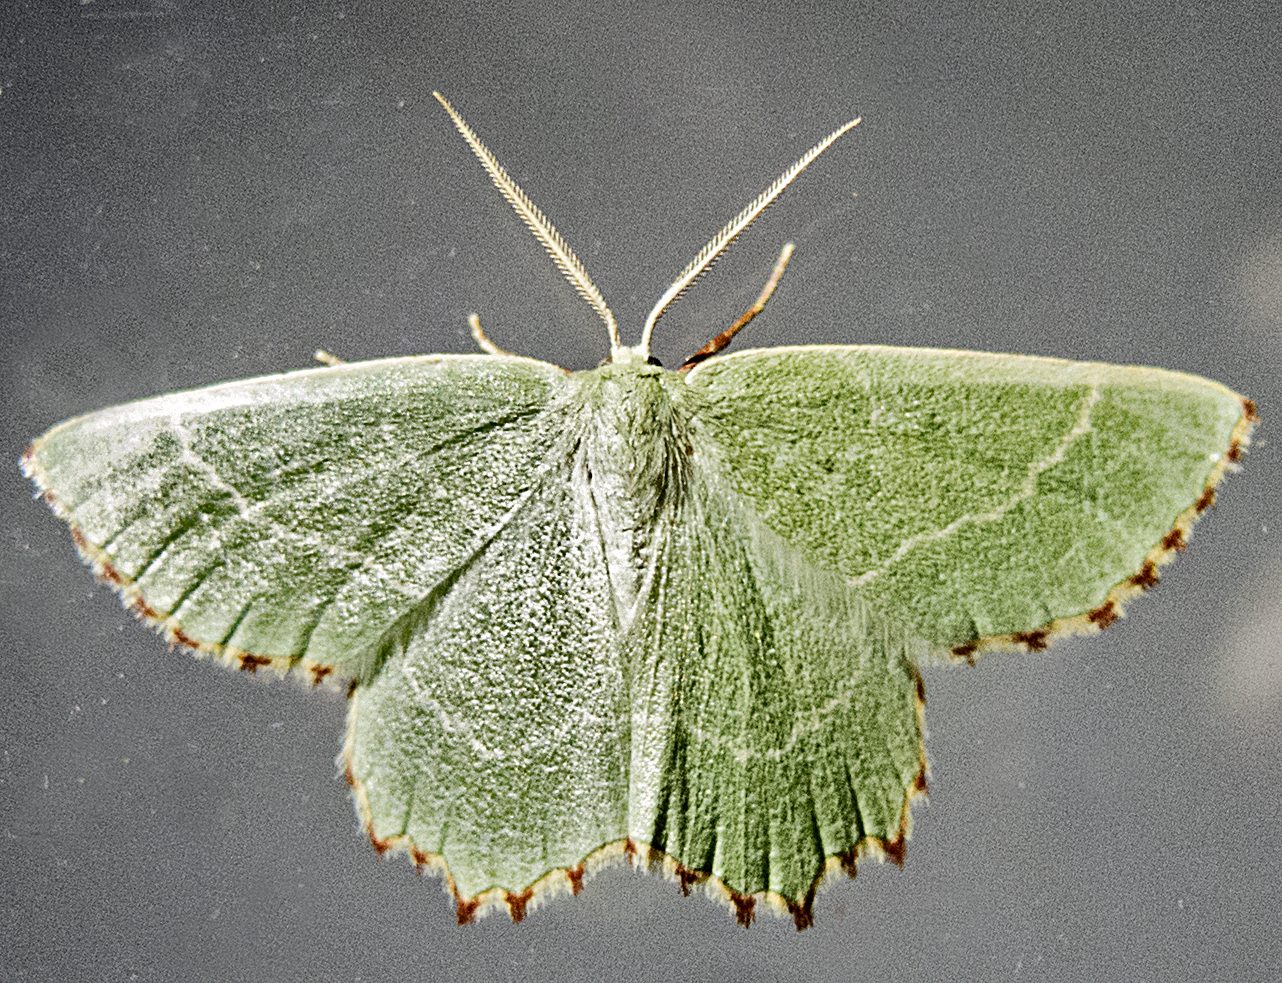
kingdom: Animalia
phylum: Arthropoda
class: Insecta
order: Lepidoptera
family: Geometridae
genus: Thalera
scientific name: Thalera fimbrialis
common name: Sussex emerald
